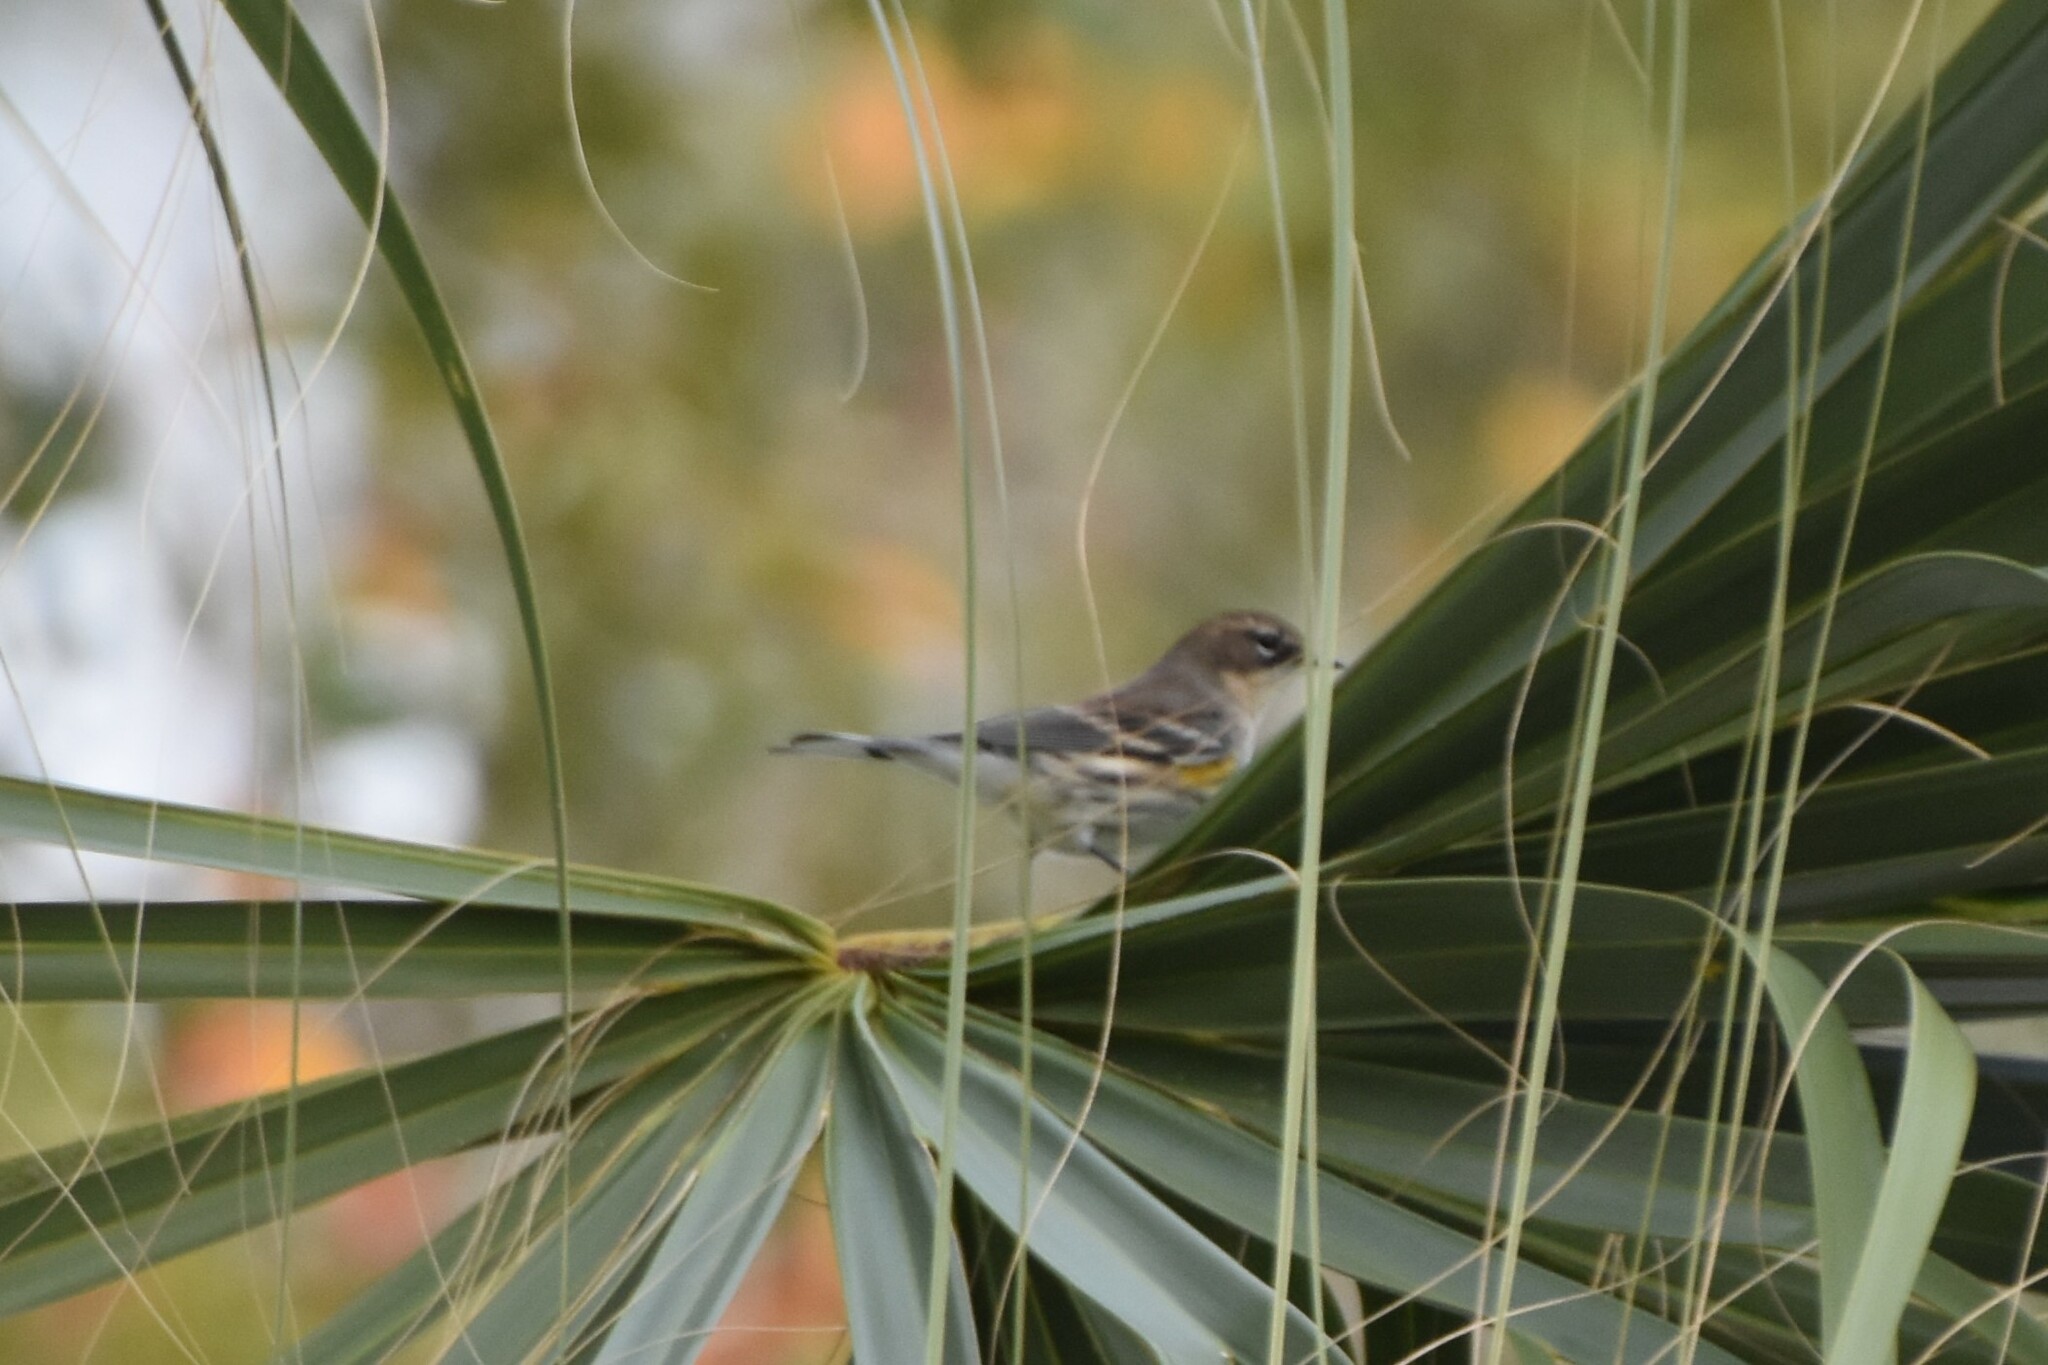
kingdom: Animalia
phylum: Chordata
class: Aves
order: Passeriformes
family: Parulidae
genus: Setophaga
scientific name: Setophaga coronata
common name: Myrtle warbler
